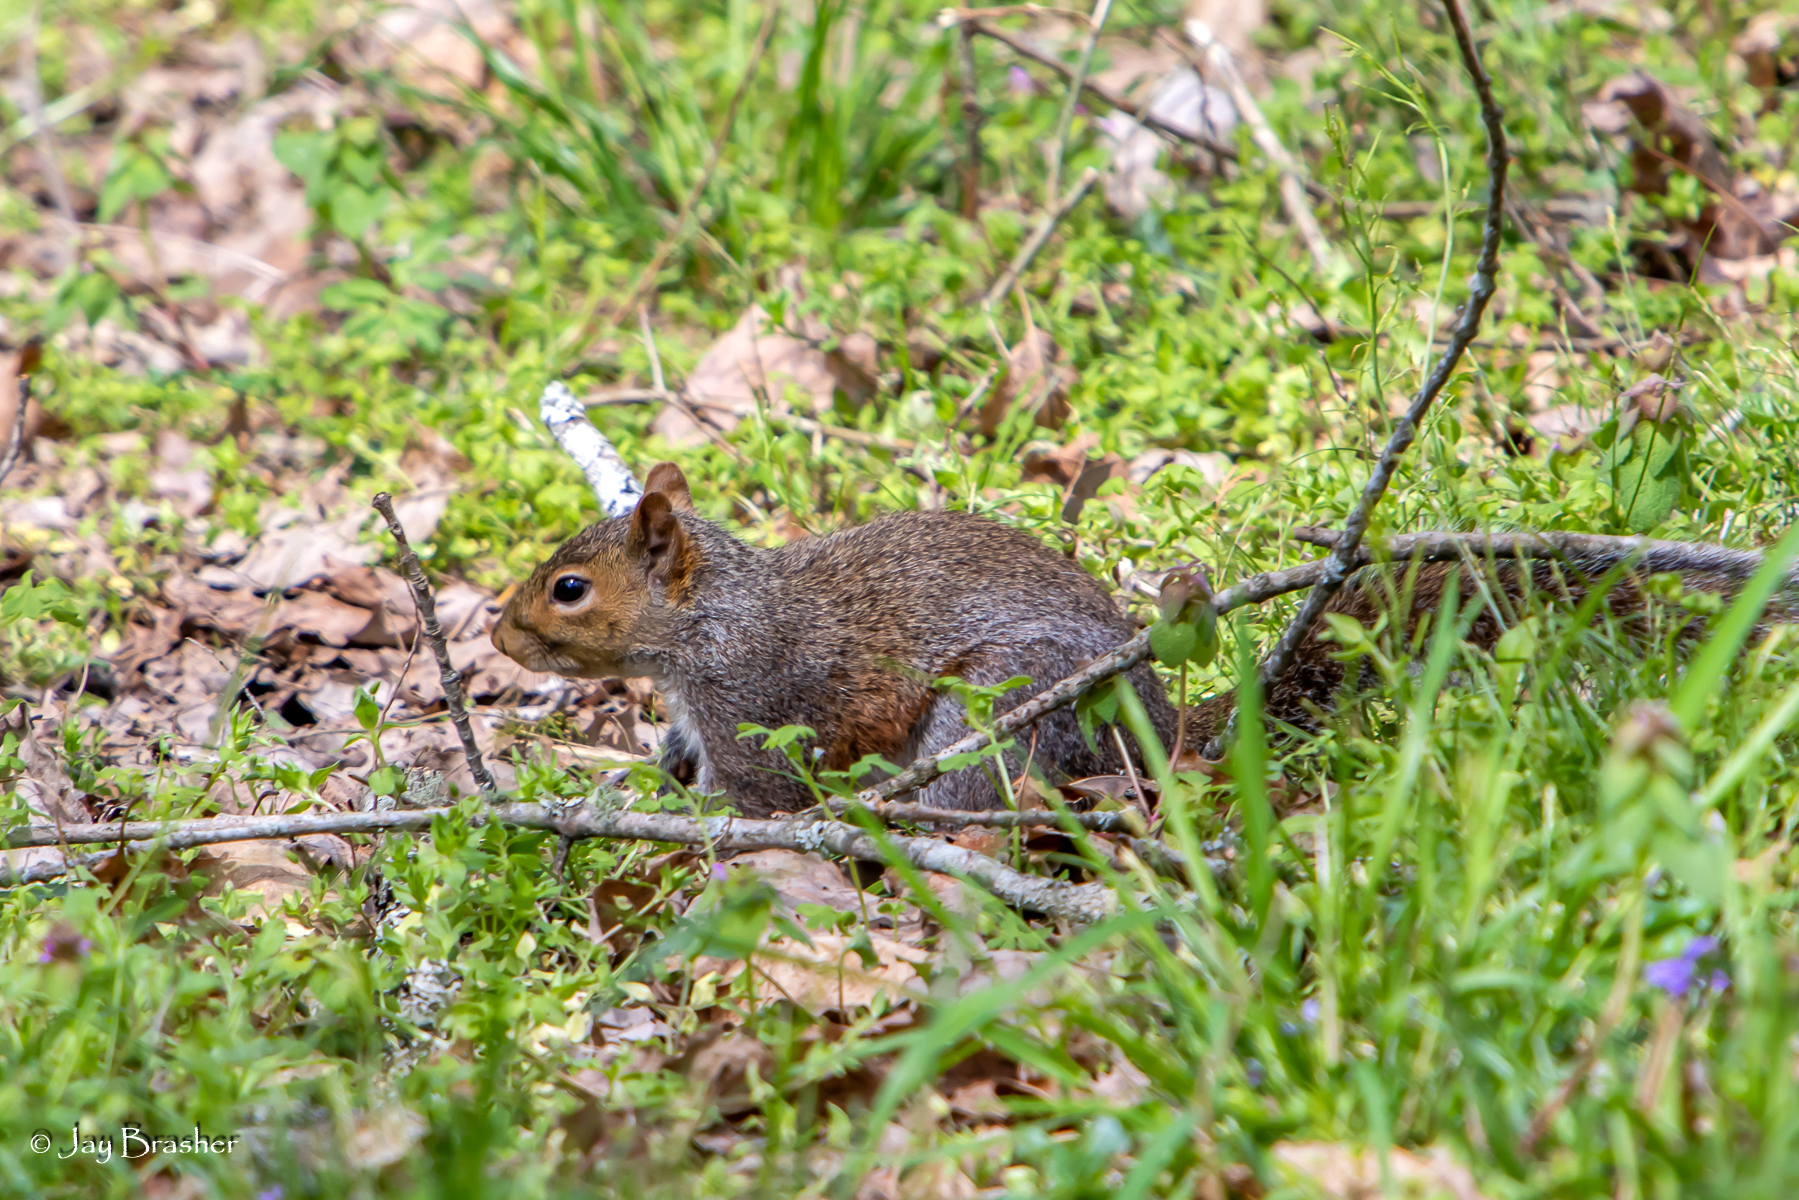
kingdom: Animalia
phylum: Chordata
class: Mammalia
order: Rodentia
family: Sciuridae
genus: Sciurus
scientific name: Sciurus carolinensis
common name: Eastern gray squirrel
